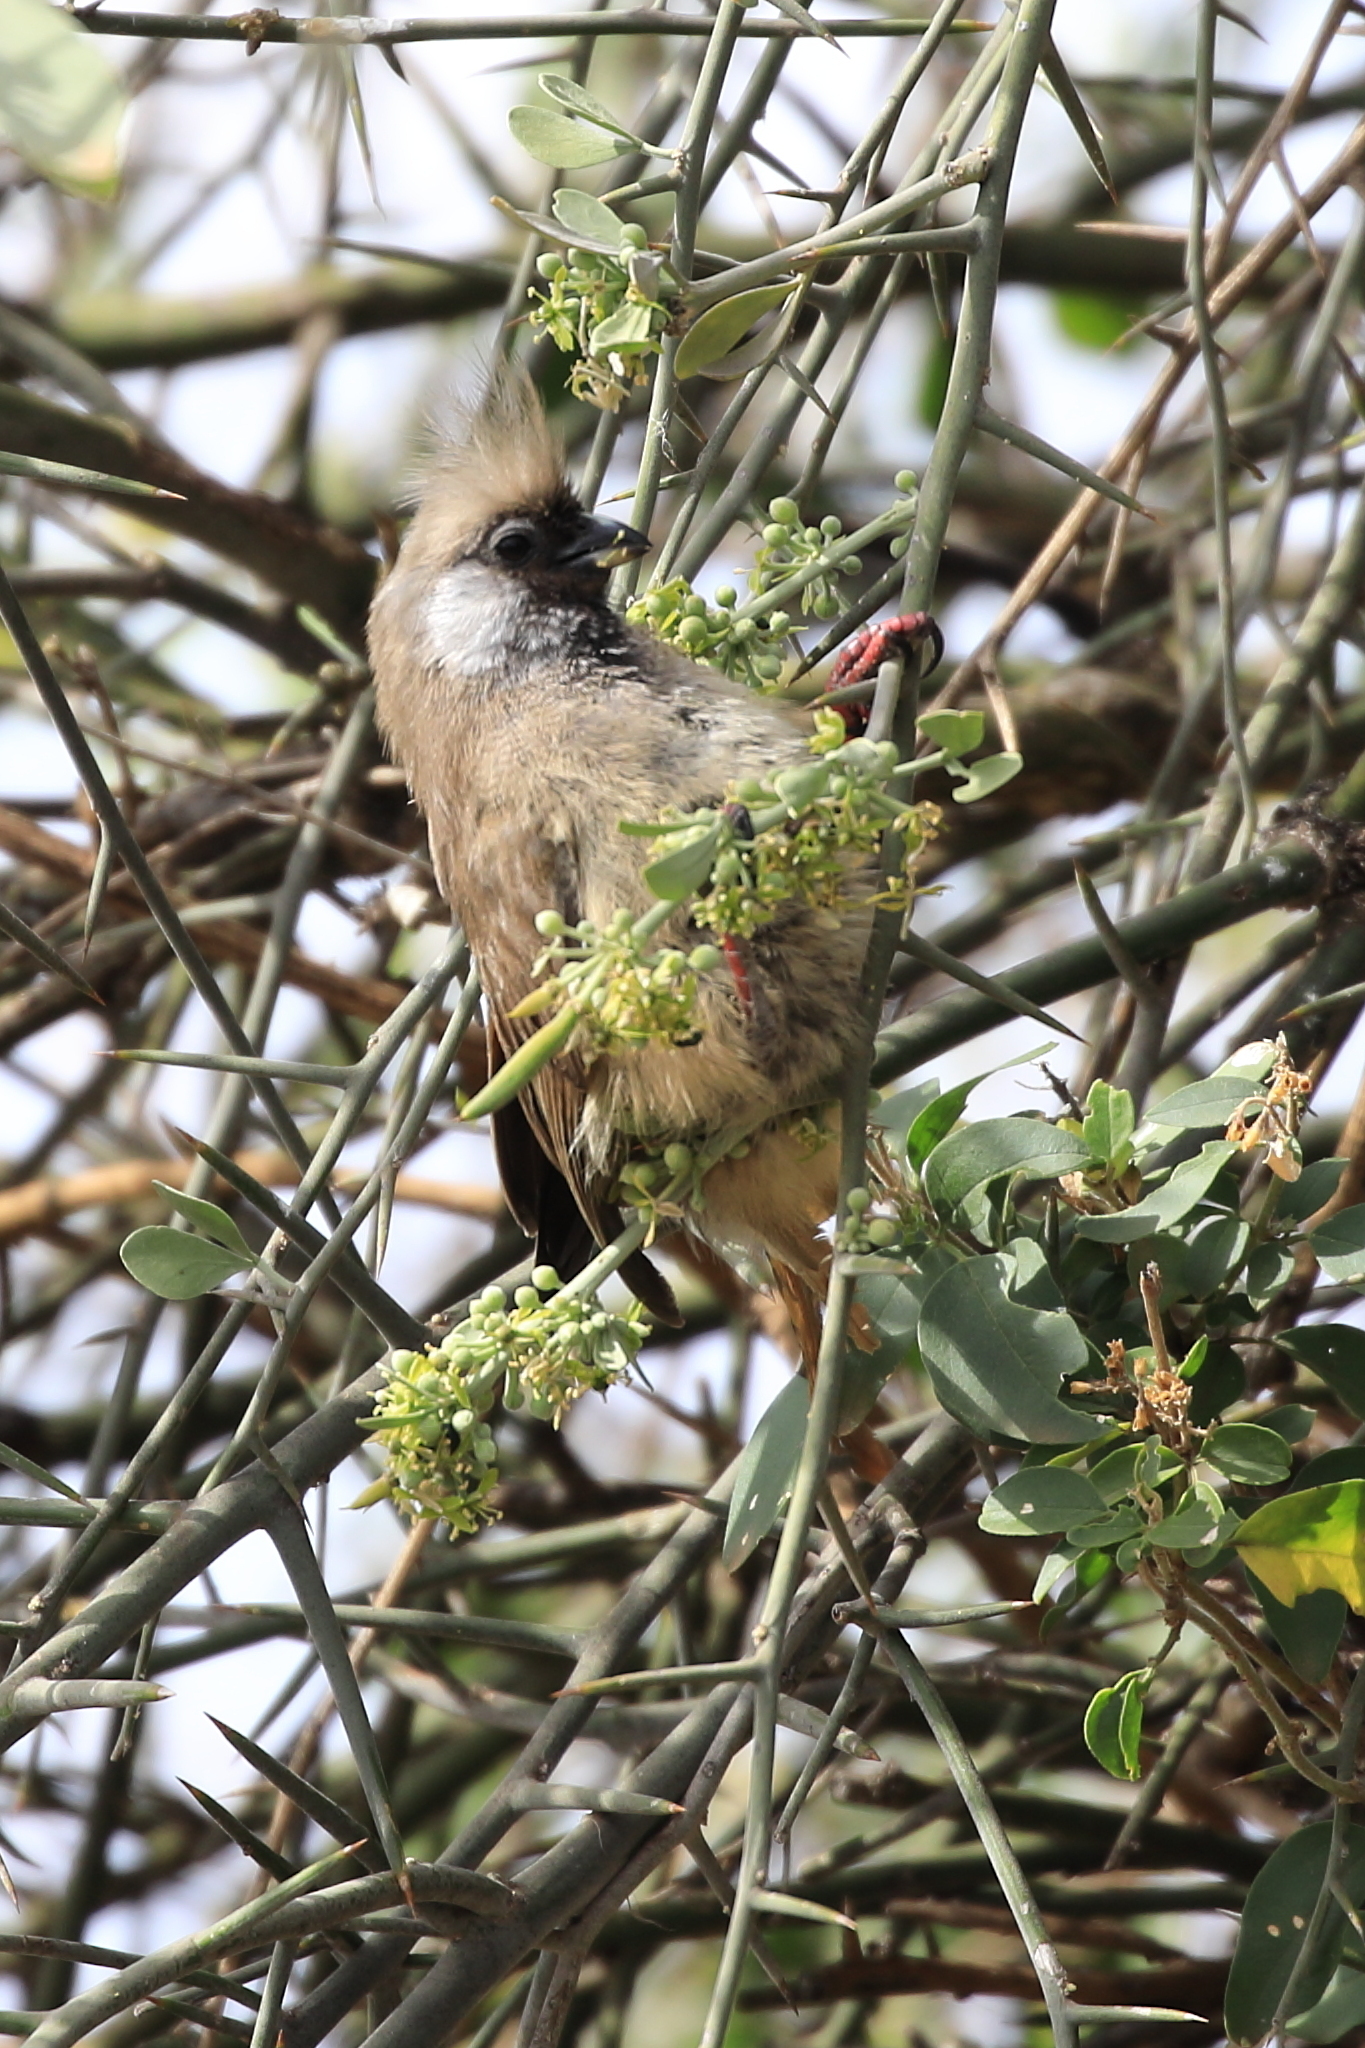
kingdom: Animalia
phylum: Chordata
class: Aves
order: Coliiformes
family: Coliidae
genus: Colius
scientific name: Colius striatus
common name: Speckled mousebird
